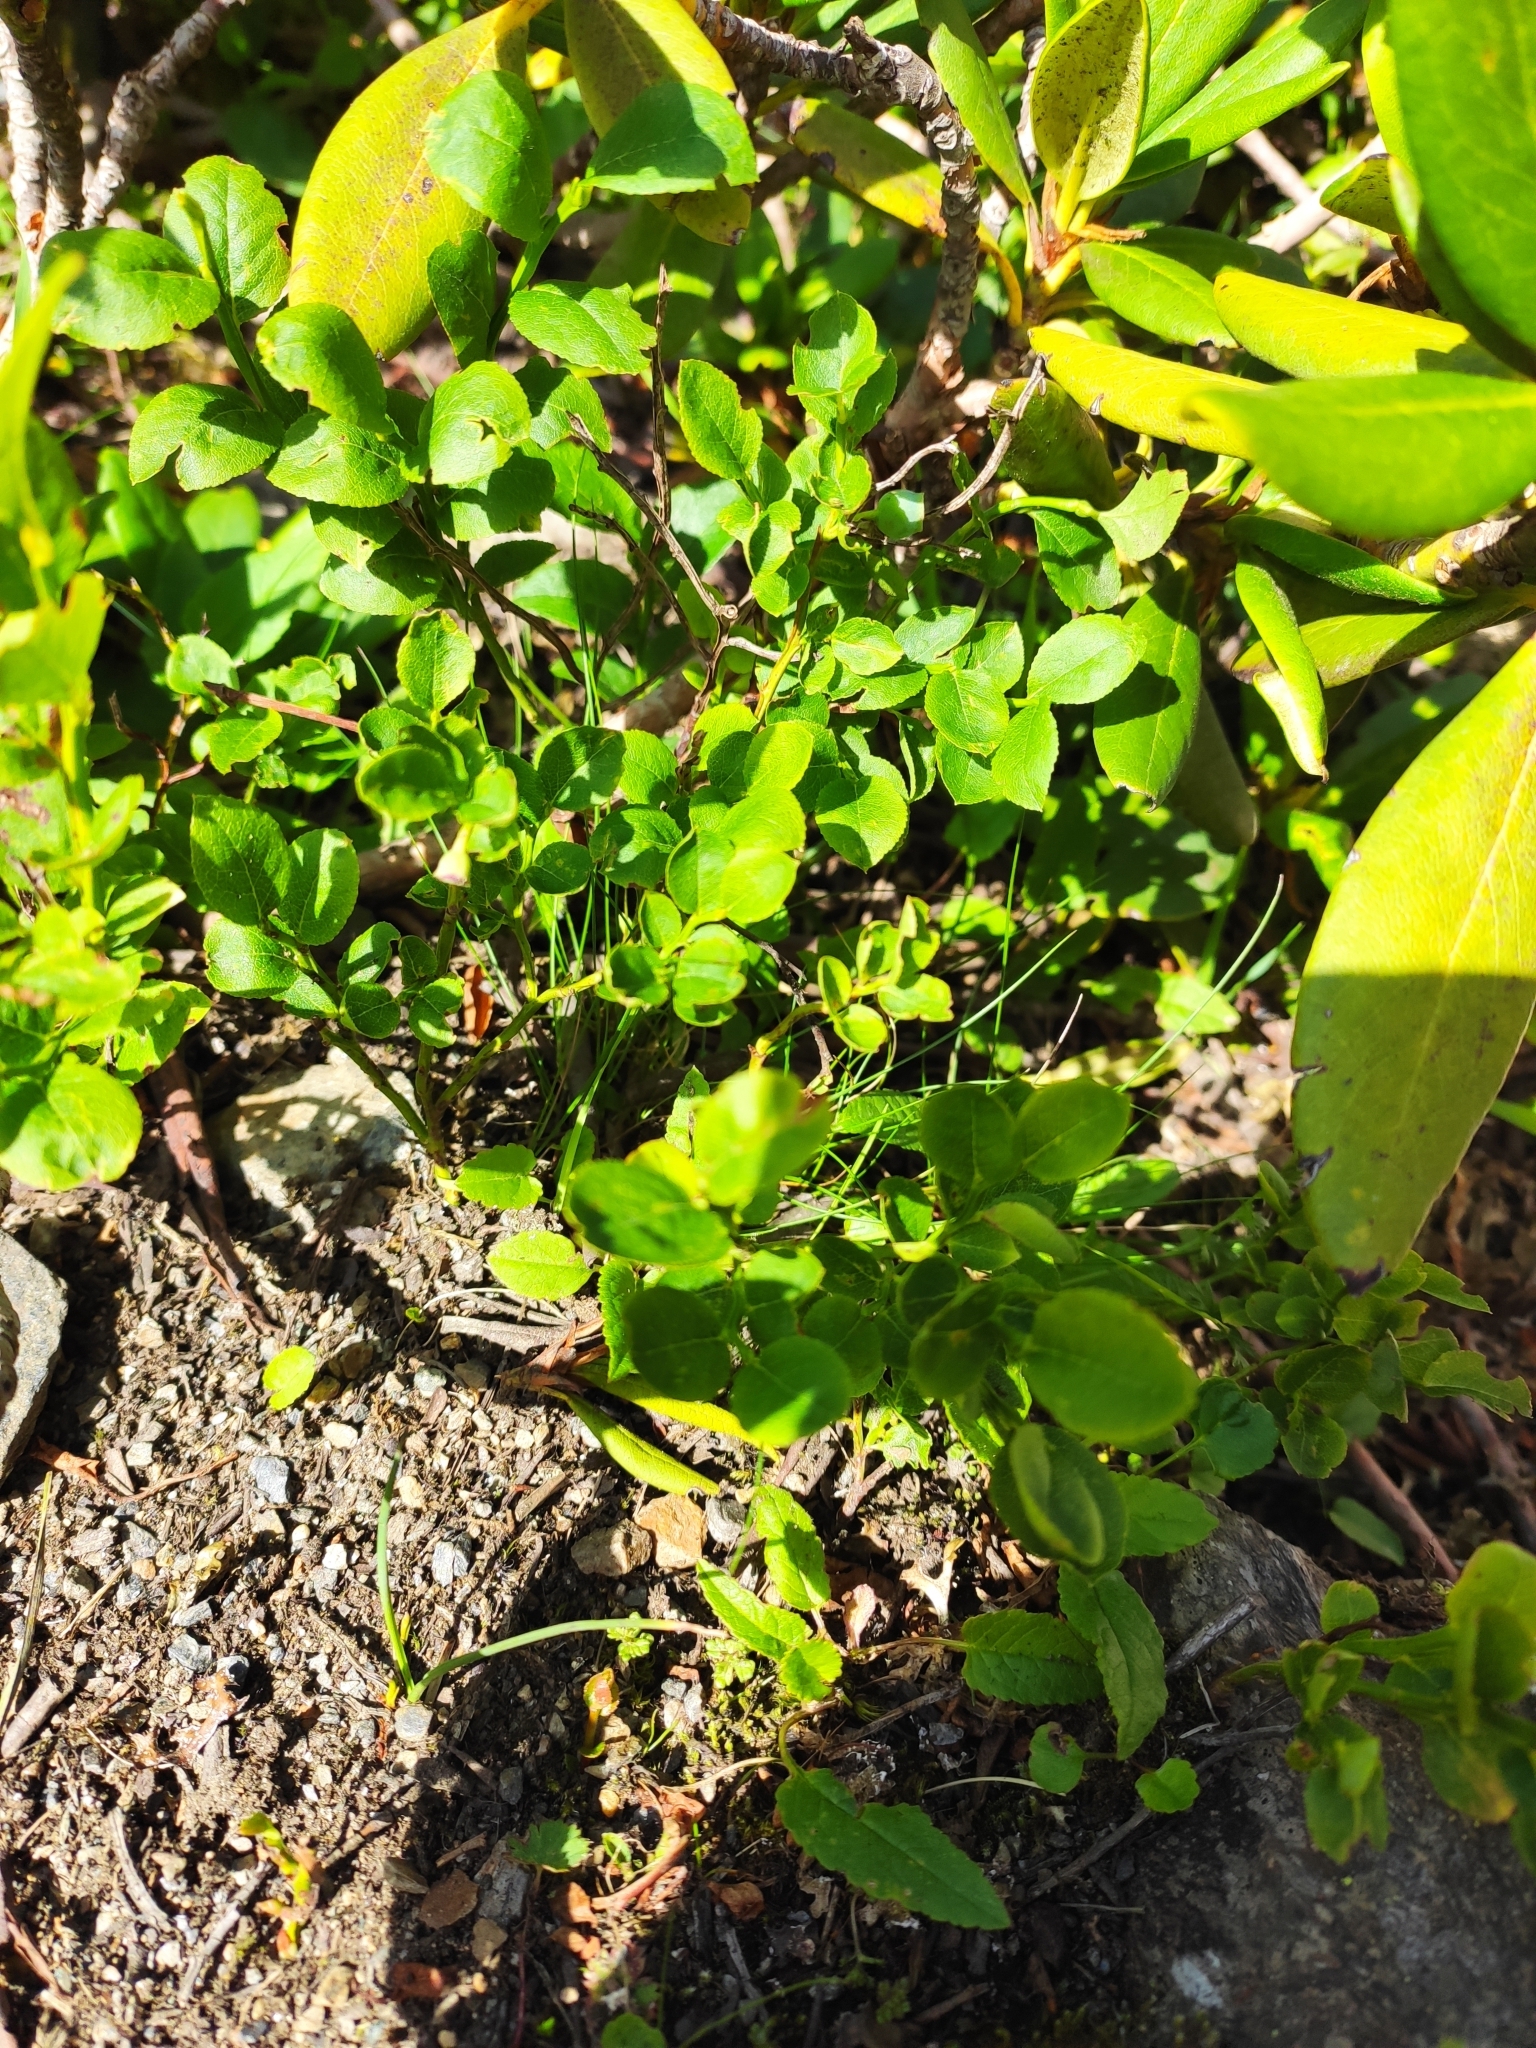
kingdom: Plantae
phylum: Tracheophyta
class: Magnoliopsida
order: Ericales
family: Ericaceae
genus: Vaccinium
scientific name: Vaccinium myrtillus
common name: Bilberry
